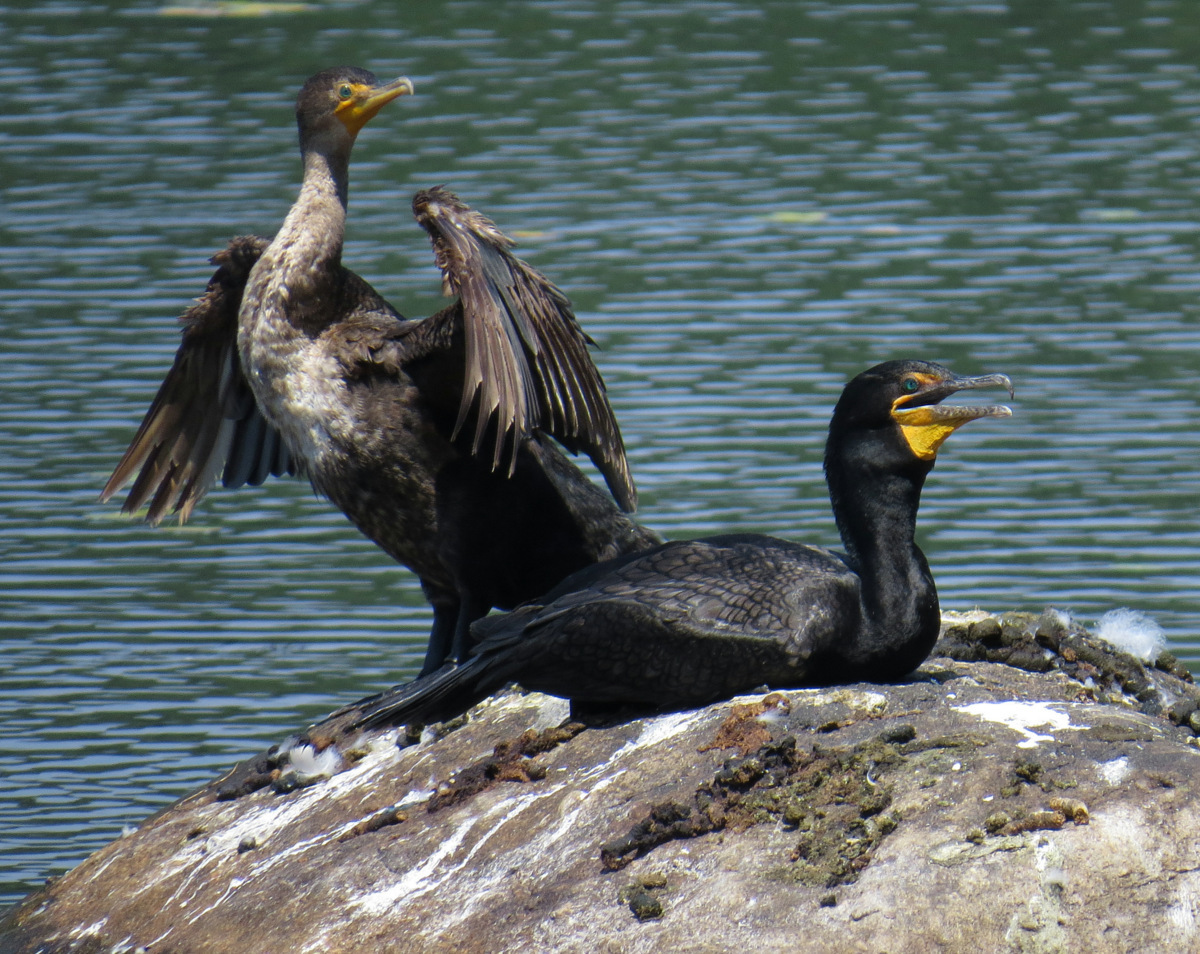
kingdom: Animalia
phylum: Chordata
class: Aves
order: Suliformes
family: Phalacrocoracidae
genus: Phalacrocorax
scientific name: Phalacrocorax auritus
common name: Double-crested cormorant
